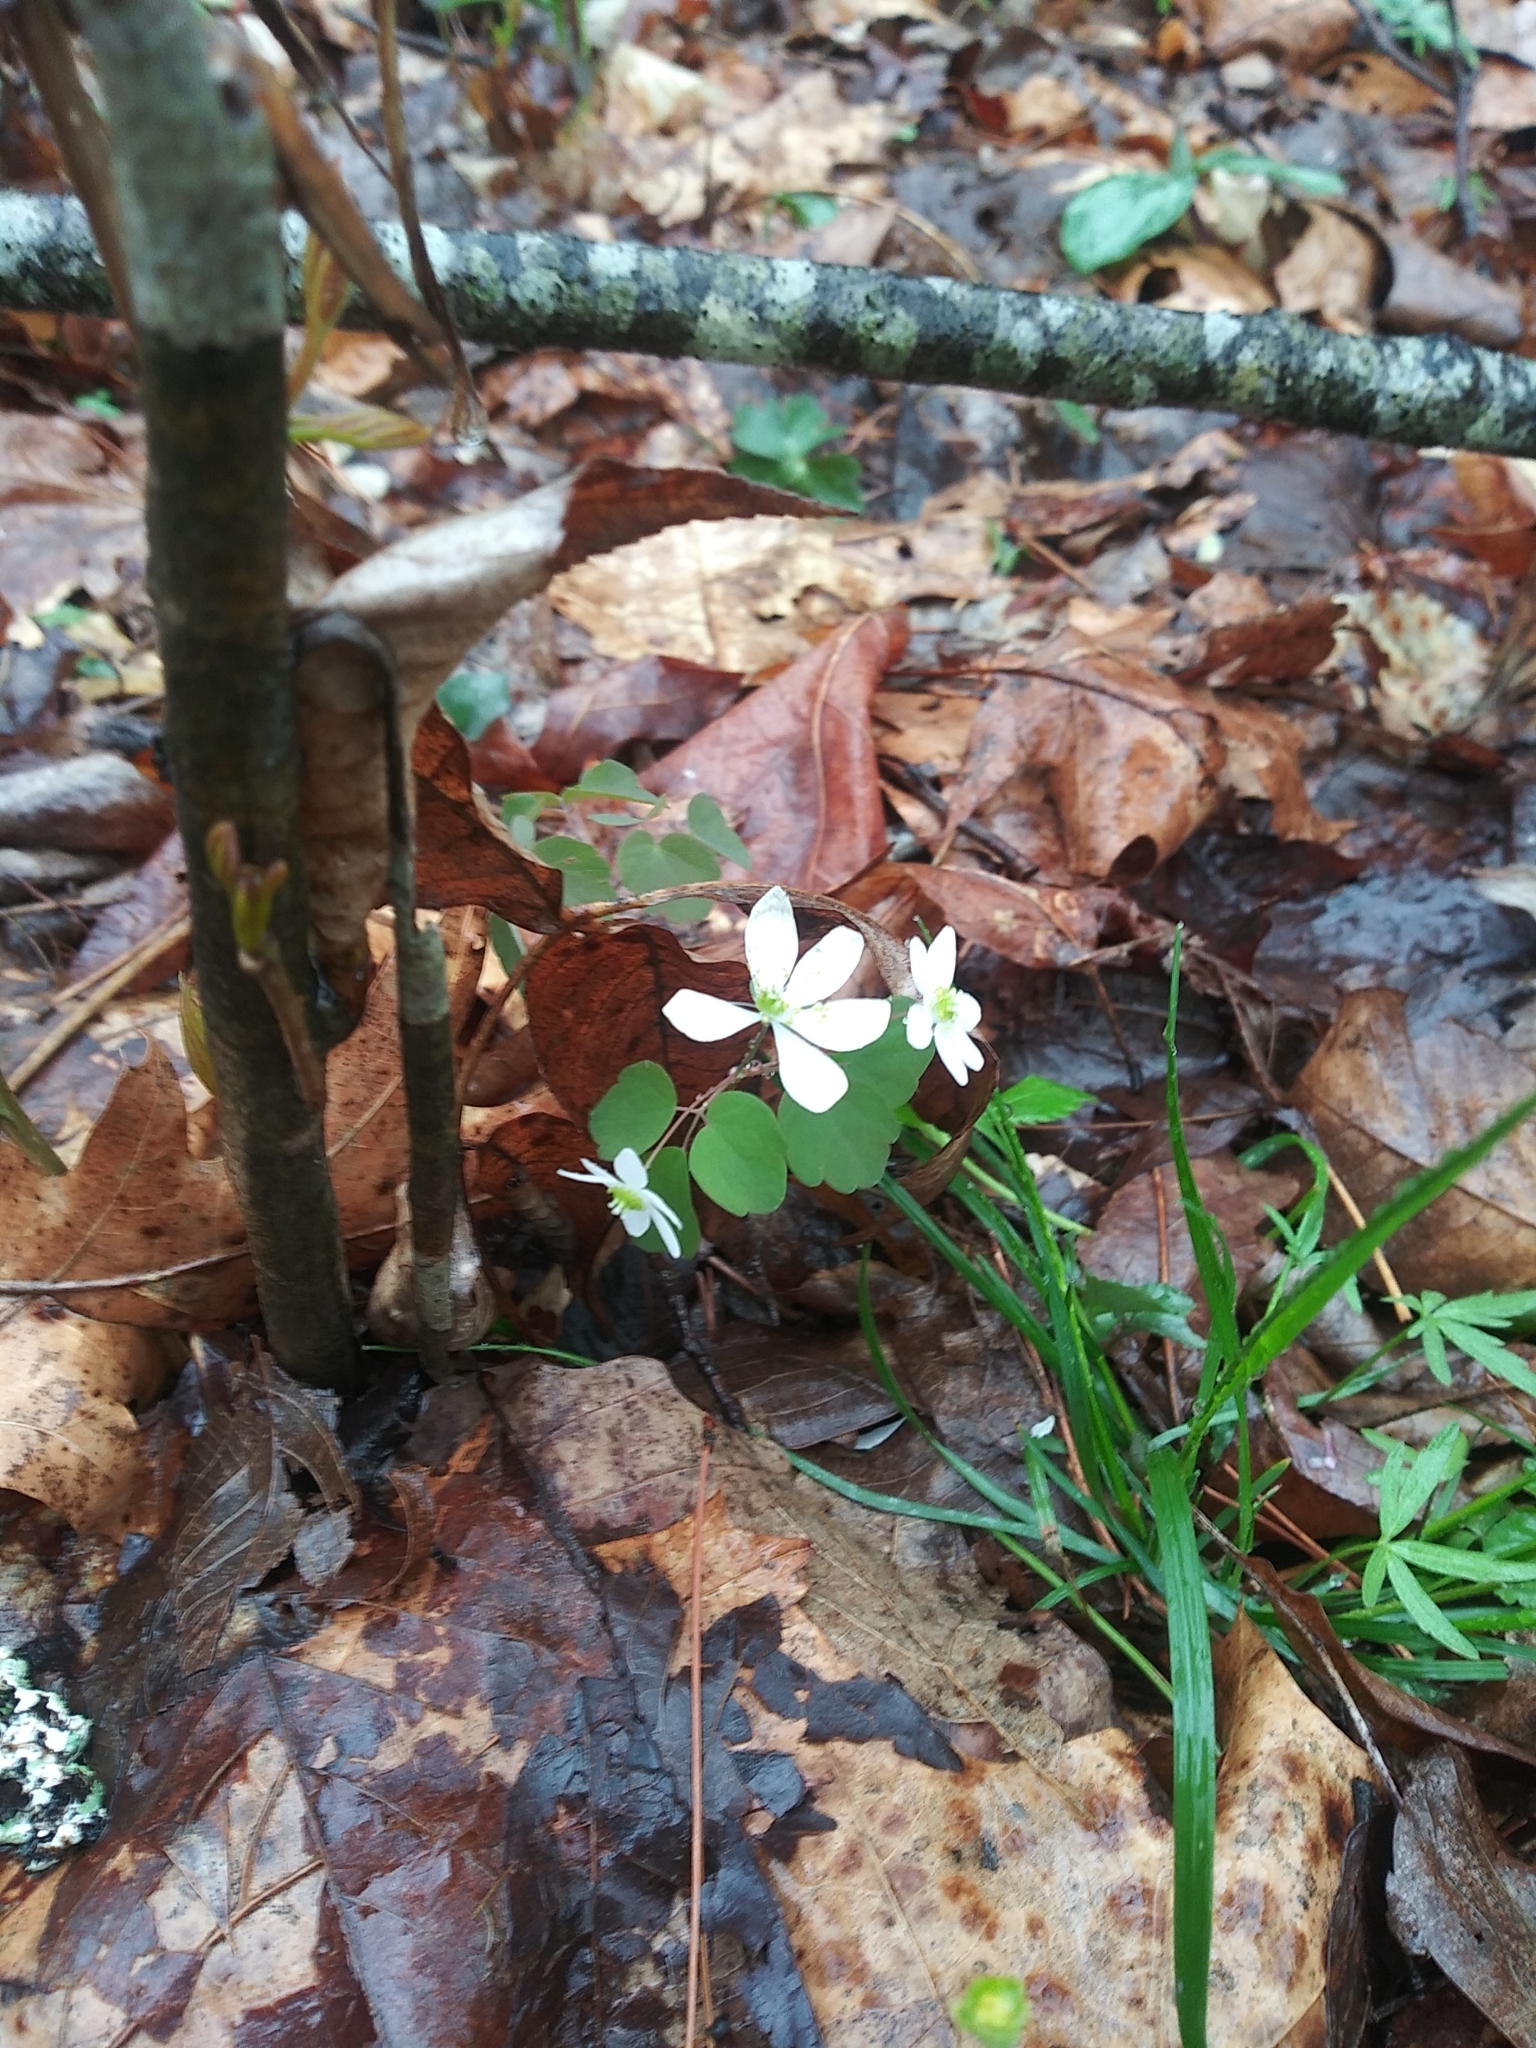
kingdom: Plantae
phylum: Tracheophyta
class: Magnoliopsida
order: Ranunculales
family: Ranunculaceae
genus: Thalictrum
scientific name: Thalictrum thalictroides
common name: Rue-anemone
